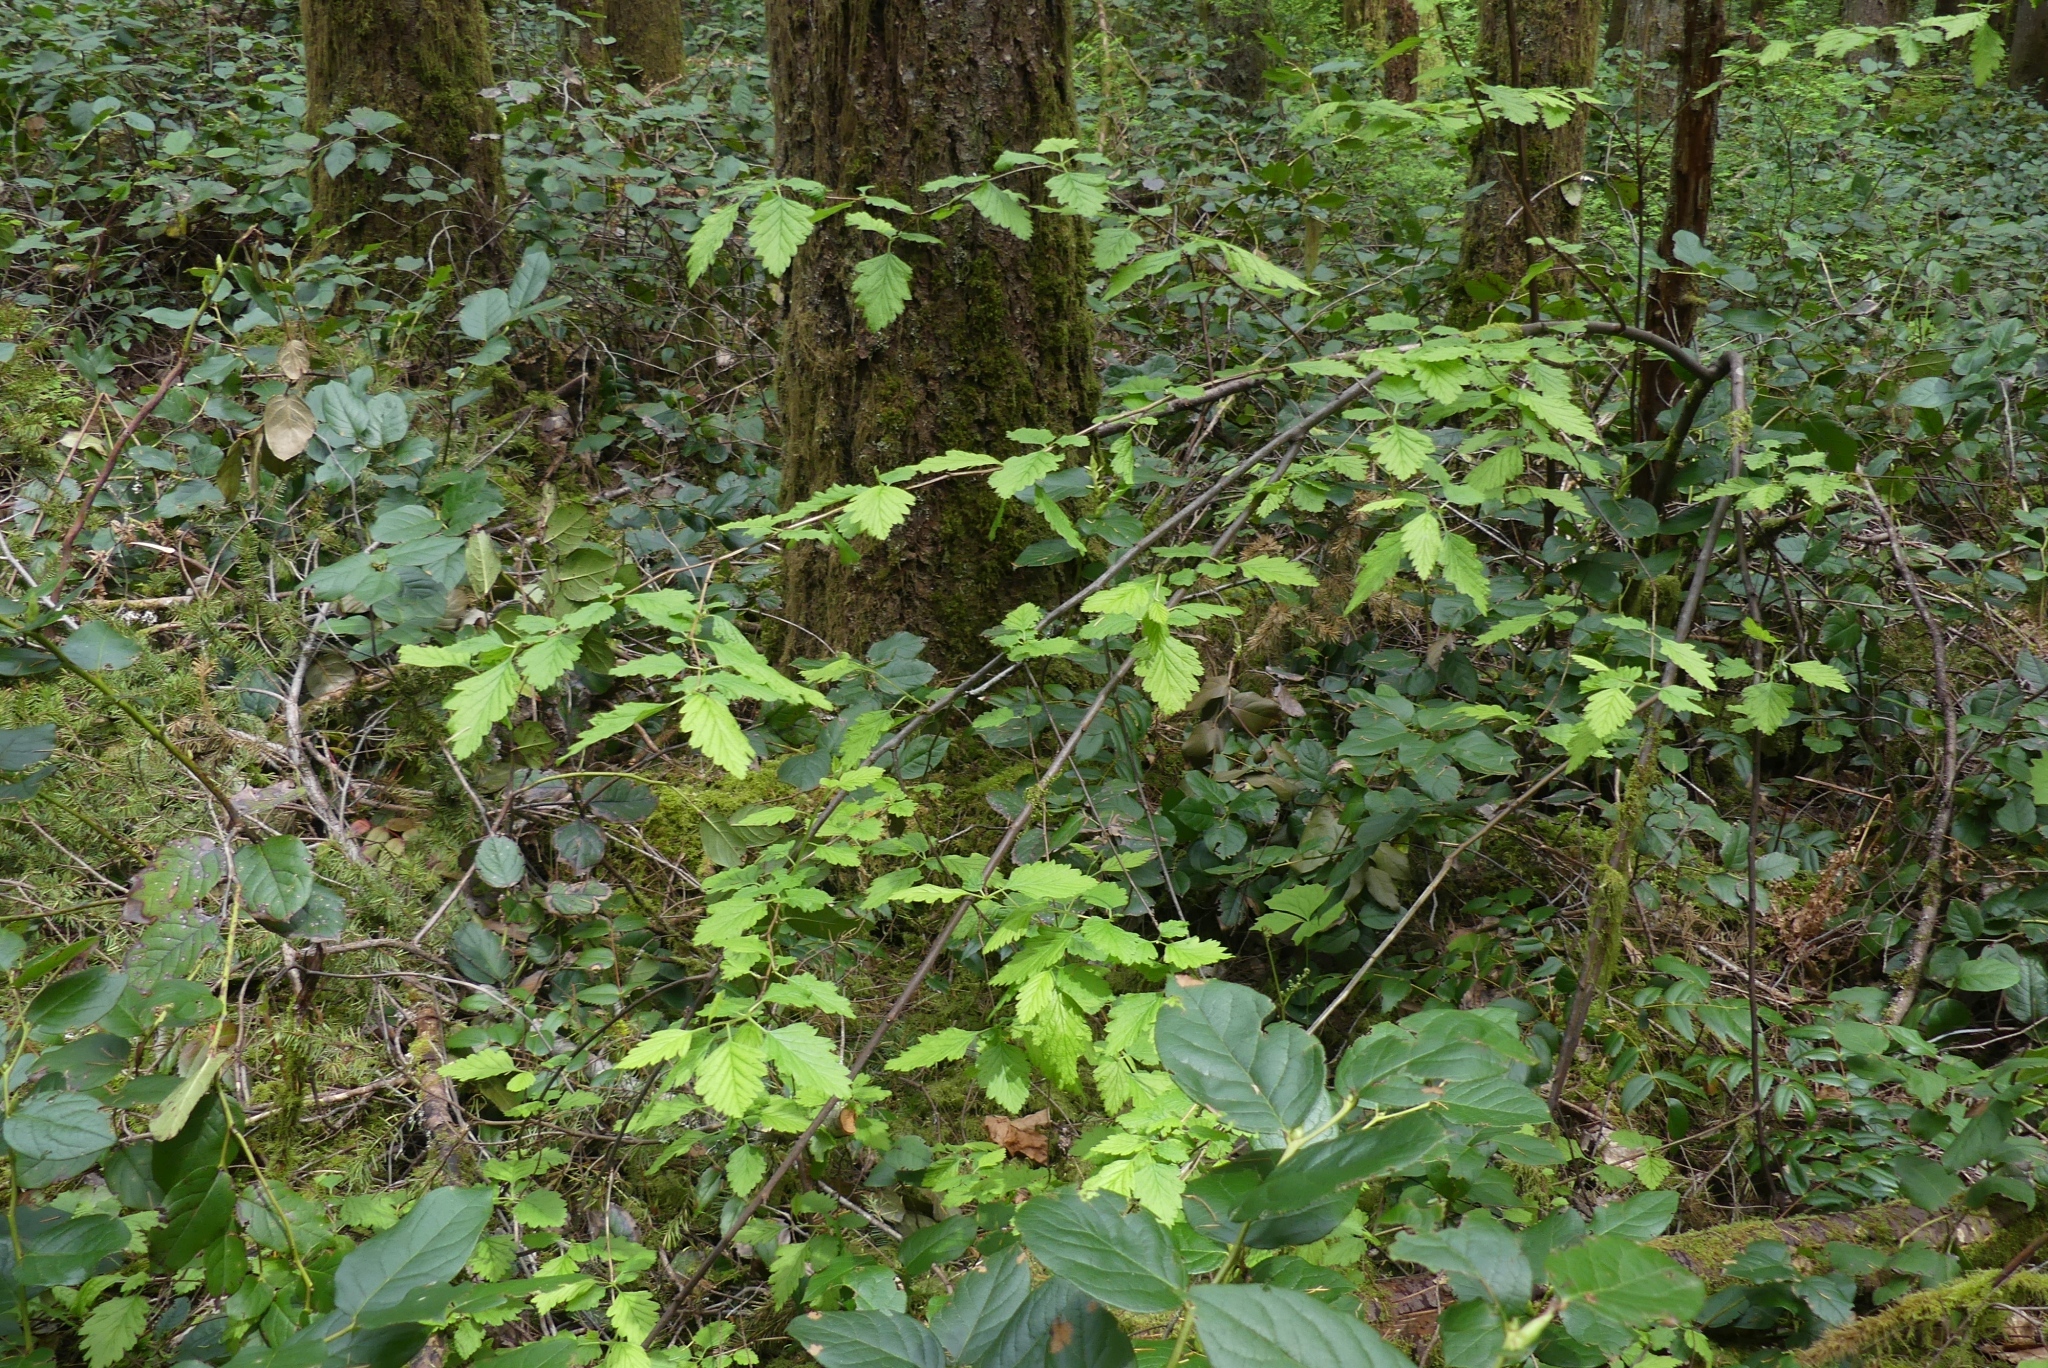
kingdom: Plantae
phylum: Tracheophyta
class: Magnoliopsida
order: Rosales
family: Rosaceae
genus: Holodiscus
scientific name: Holodiscus discolor
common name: Oceanspray
